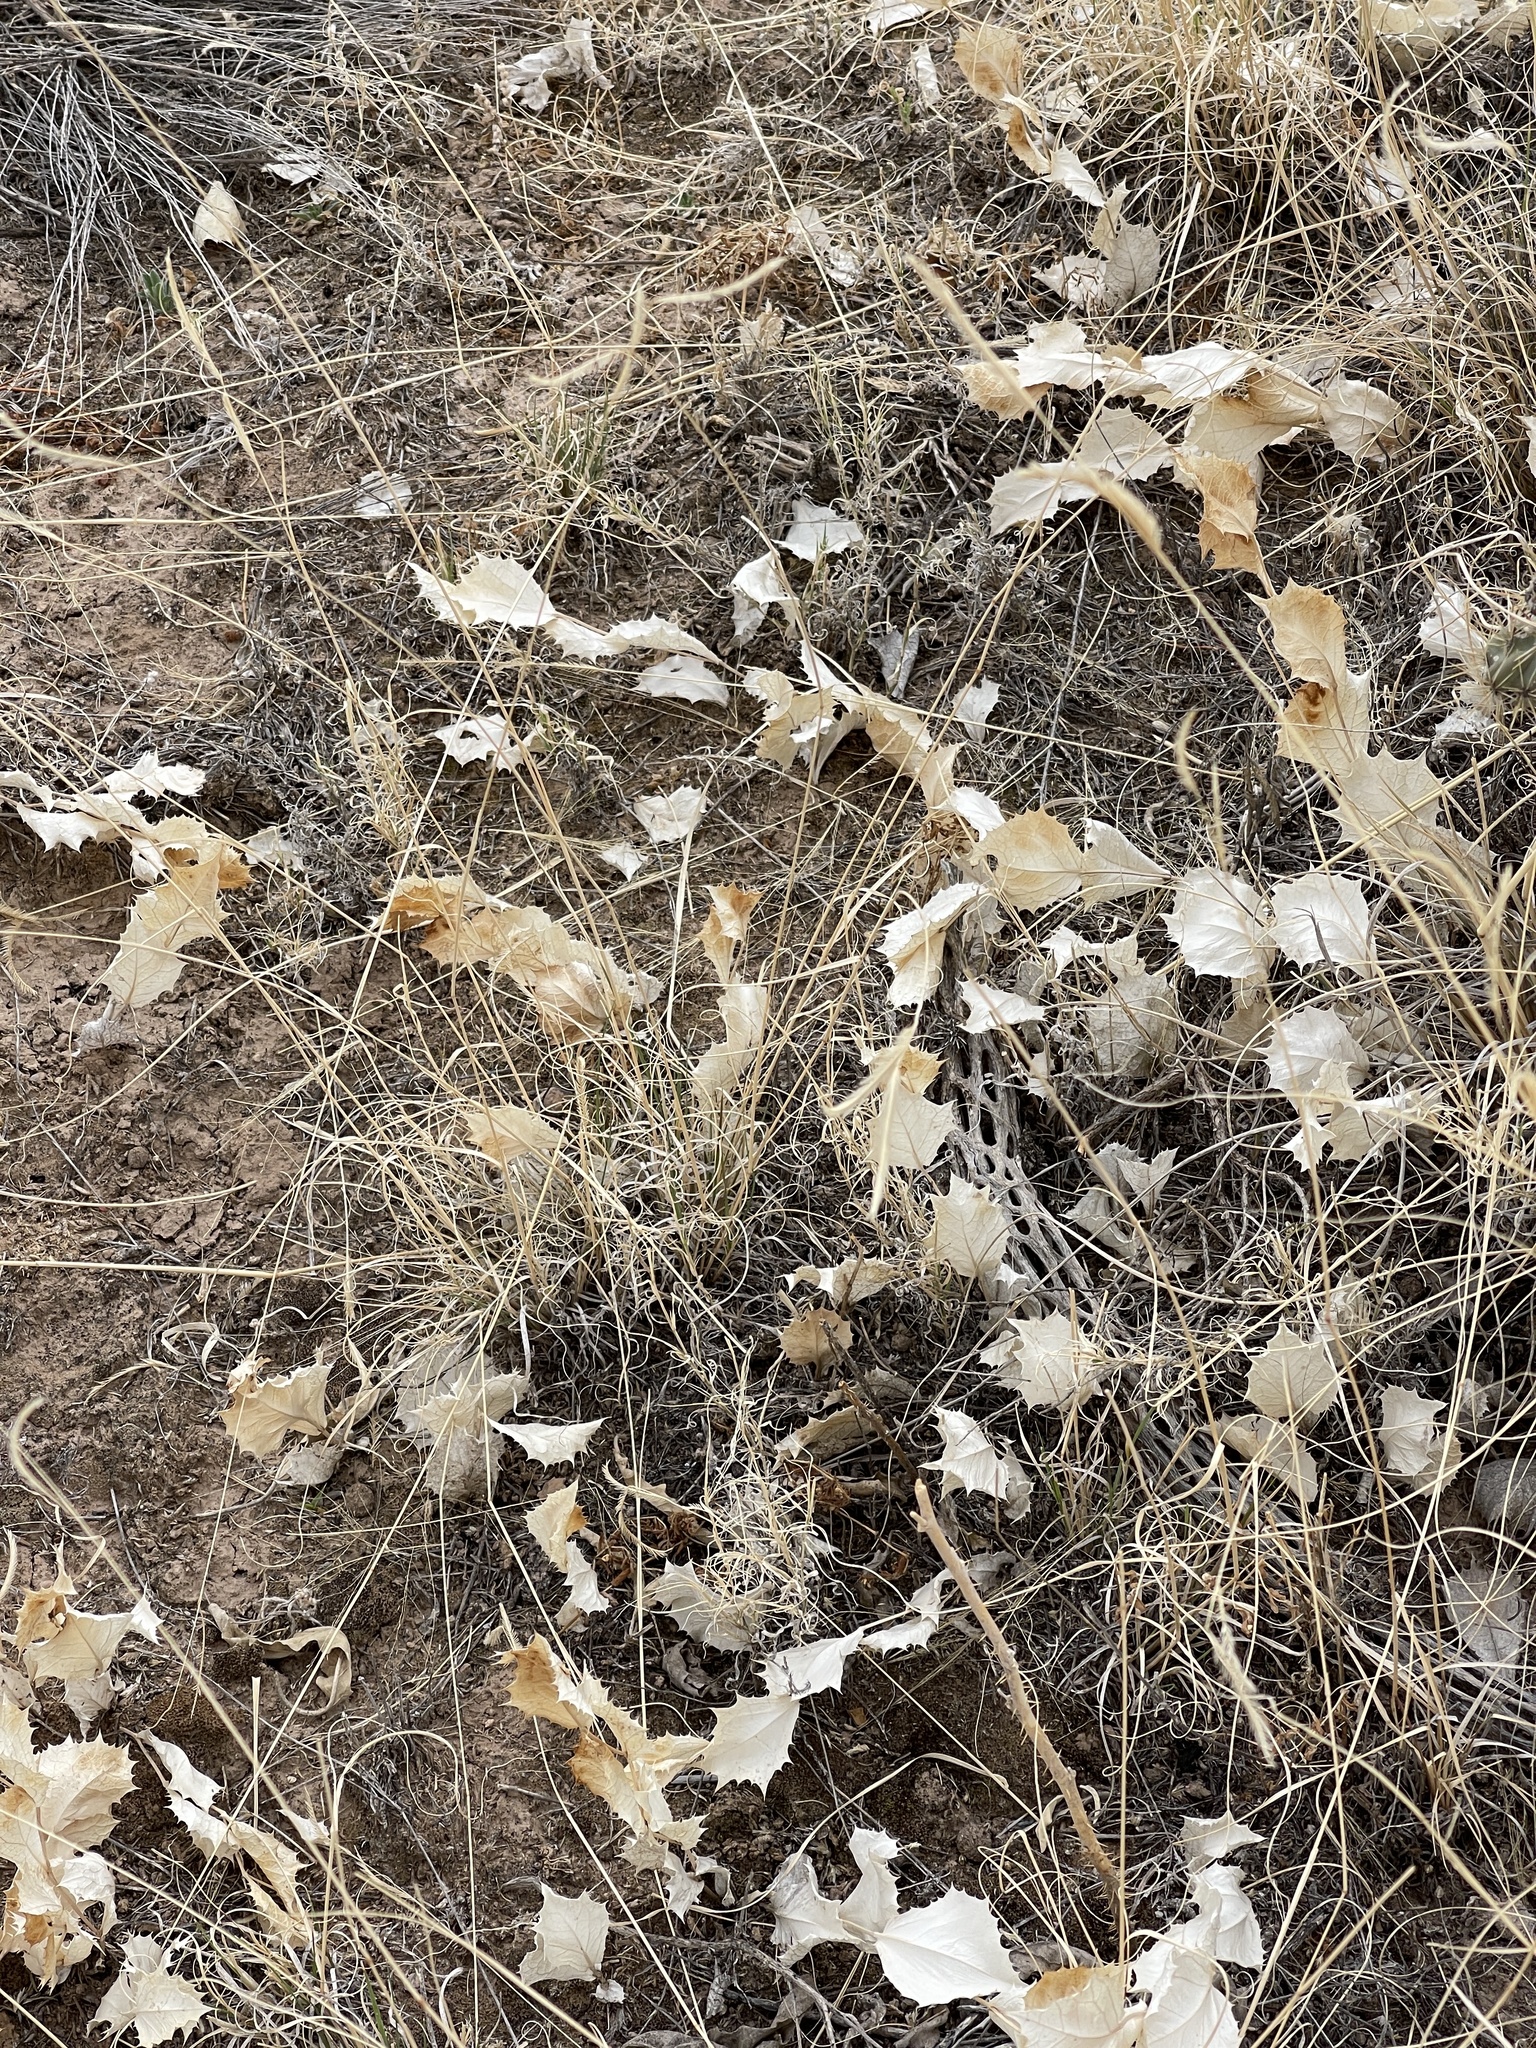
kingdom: Plantae
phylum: Tracheophyta
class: Magnoliopsida
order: Asterales
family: Asteraceae
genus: Acourtia
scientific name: Acourtia nana
